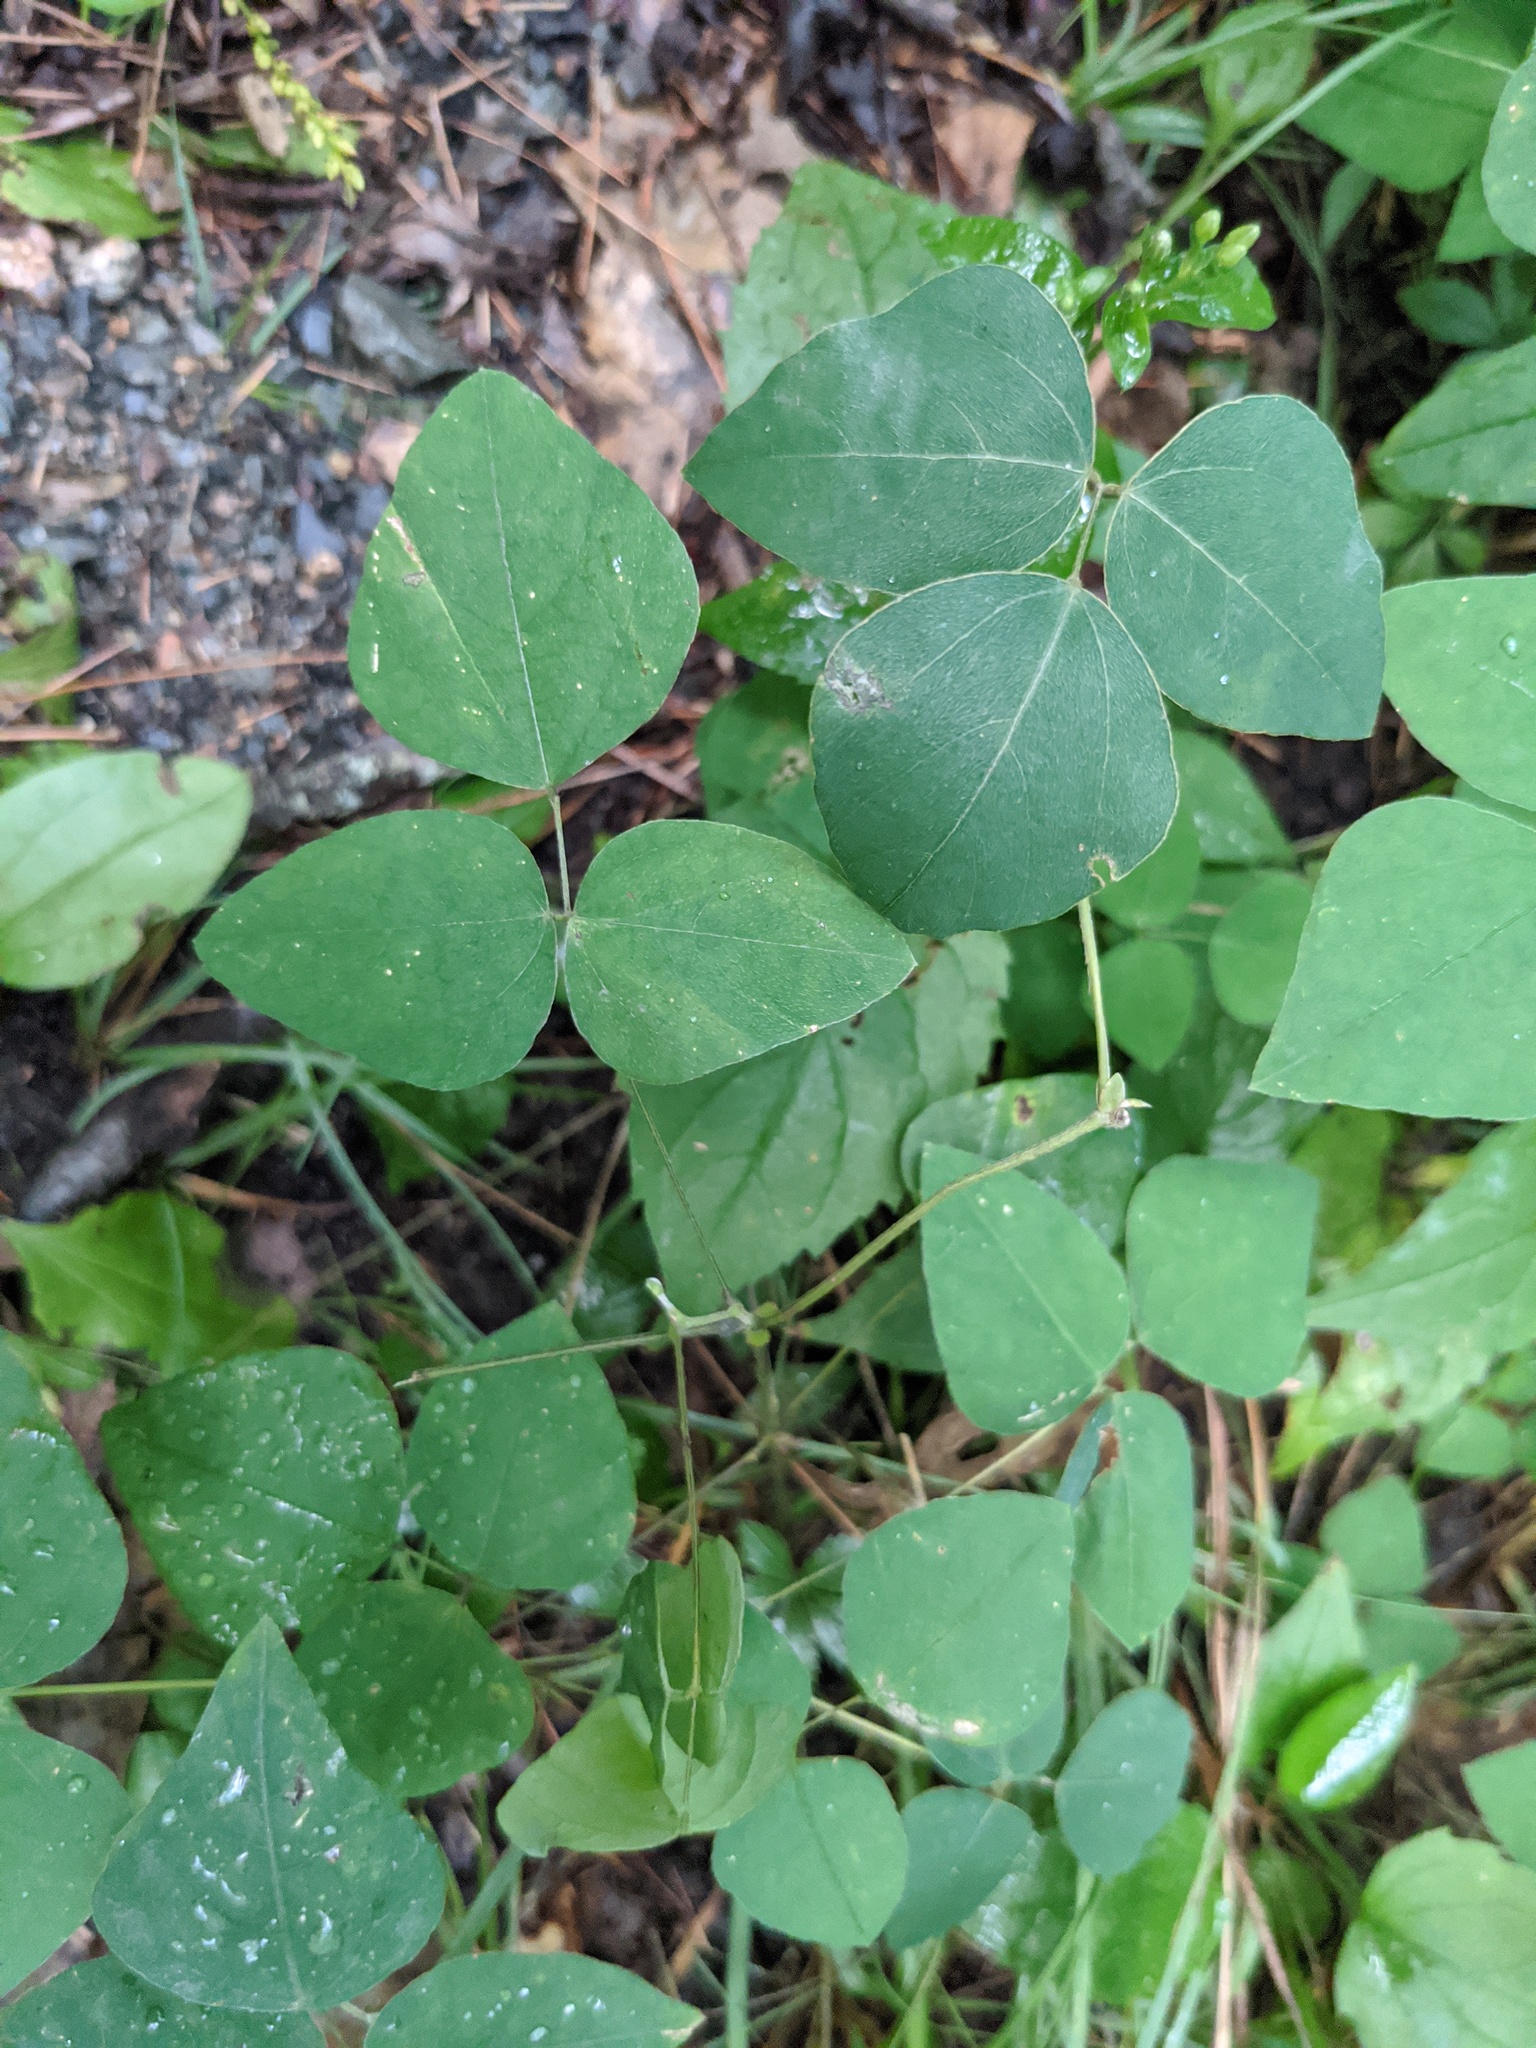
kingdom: Plantae
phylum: Tracheophyta
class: Magnoliopsida
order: Fabales
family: Fabaceae
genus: Amphicarpaea
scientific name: Amphicarpaea bracteata
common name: American hog peanut
